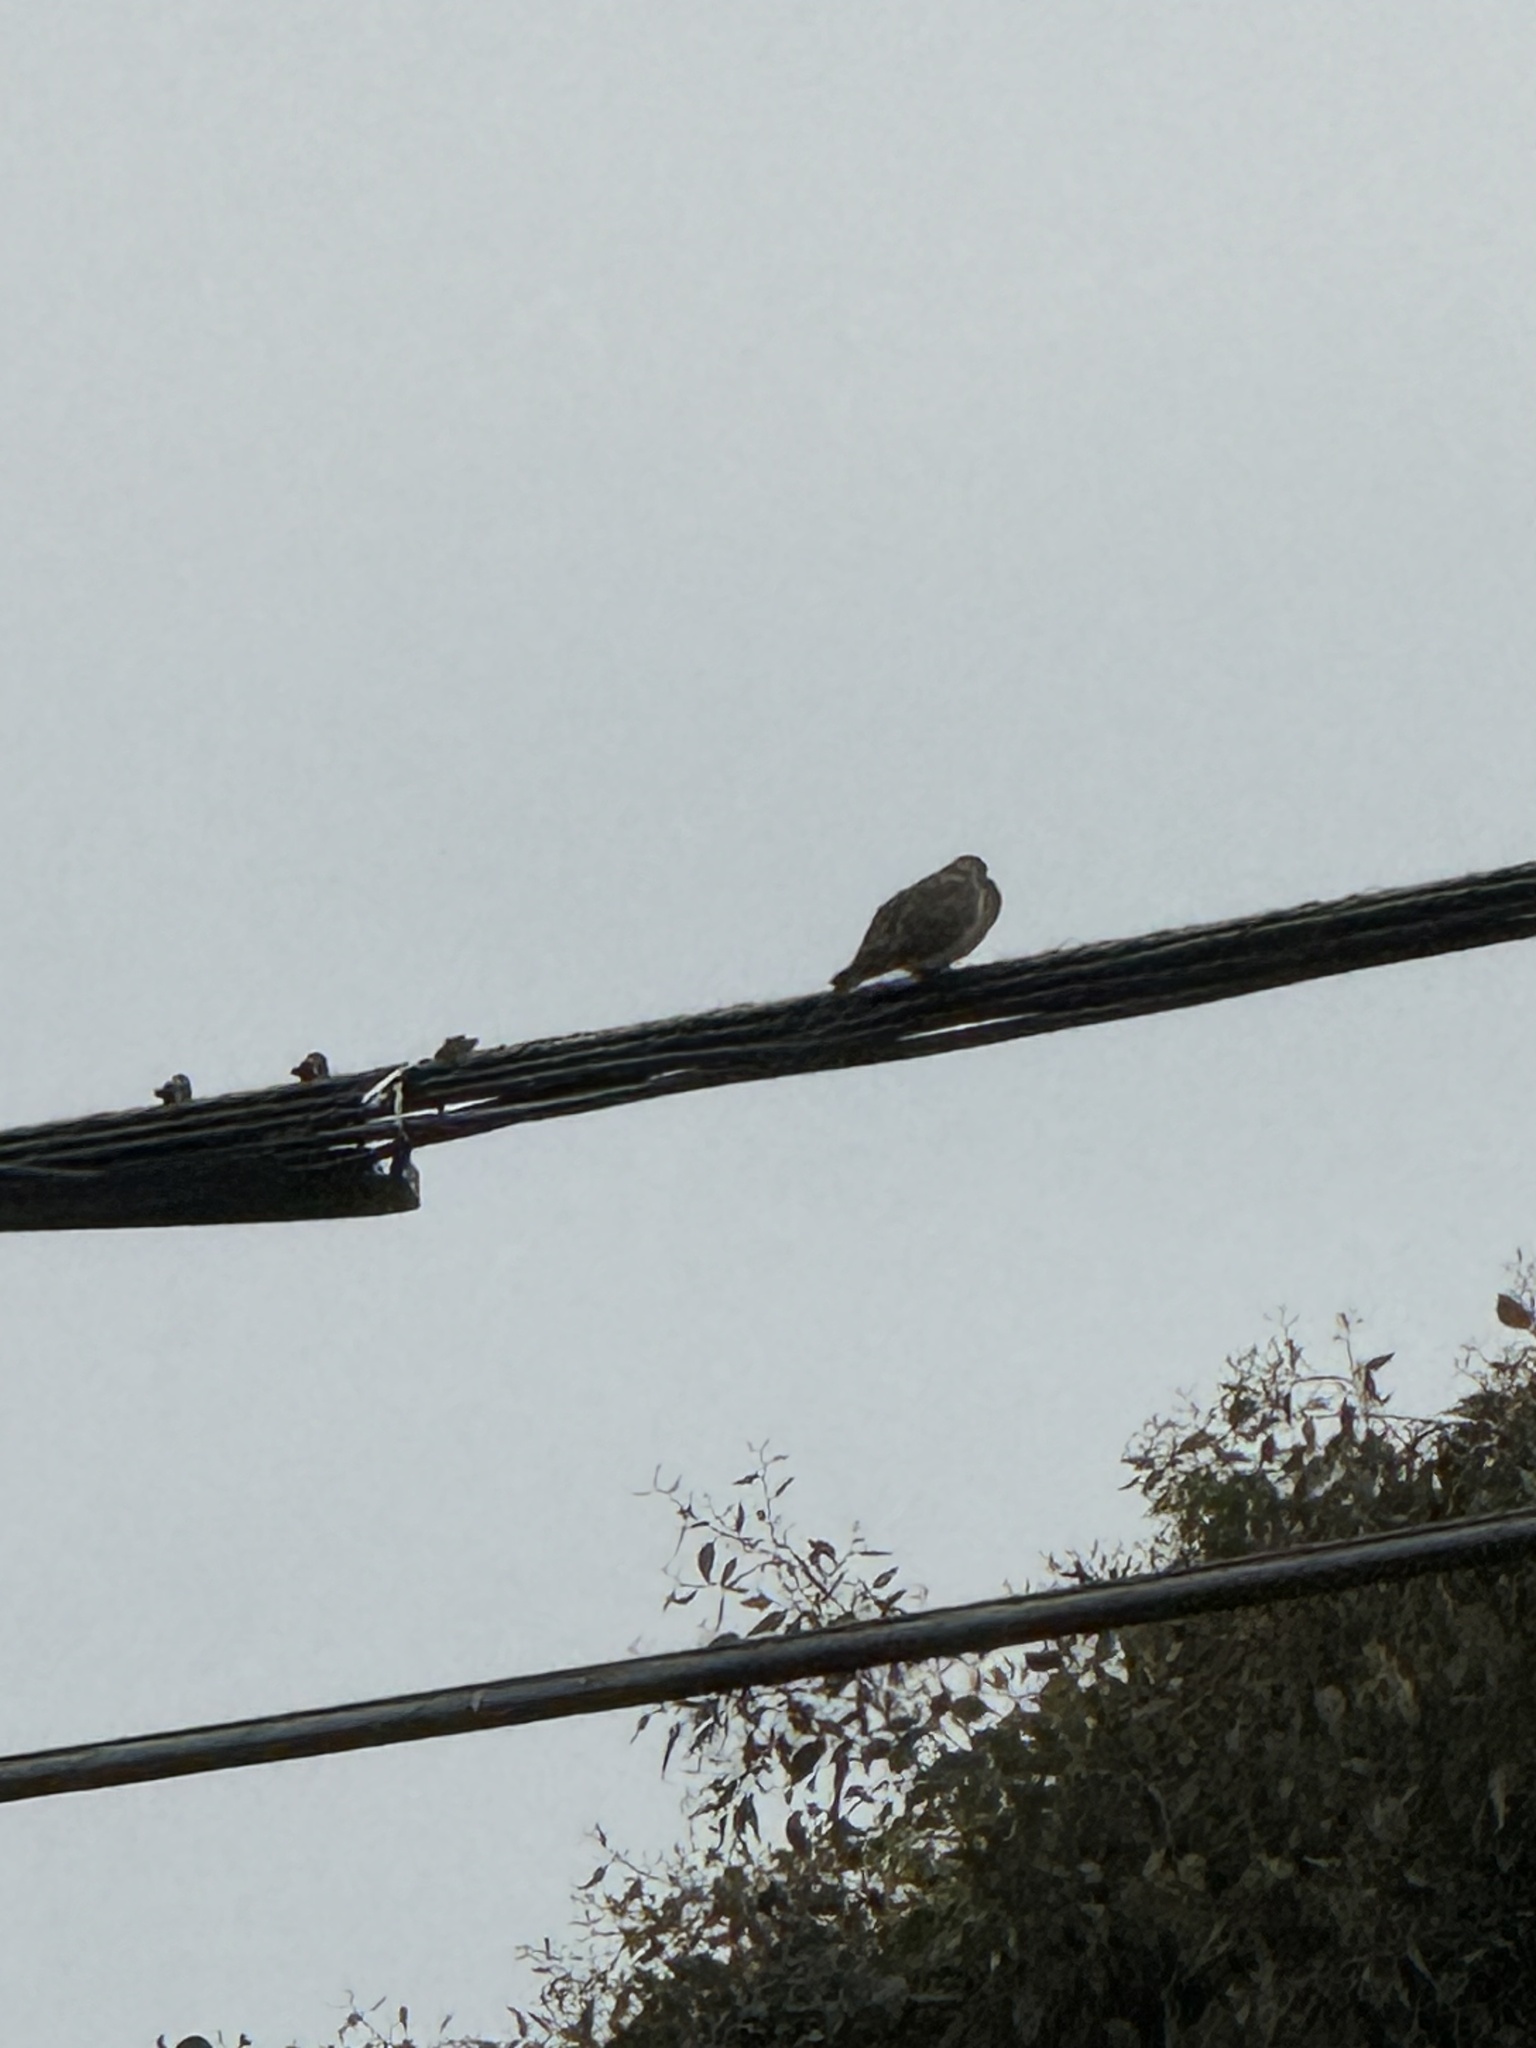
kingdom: Animalia
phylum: Chordata
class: Aves
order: Columbiformes
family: Columbidae
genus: Zenaida
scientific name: Zenaida macroura
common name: Mourning dove
